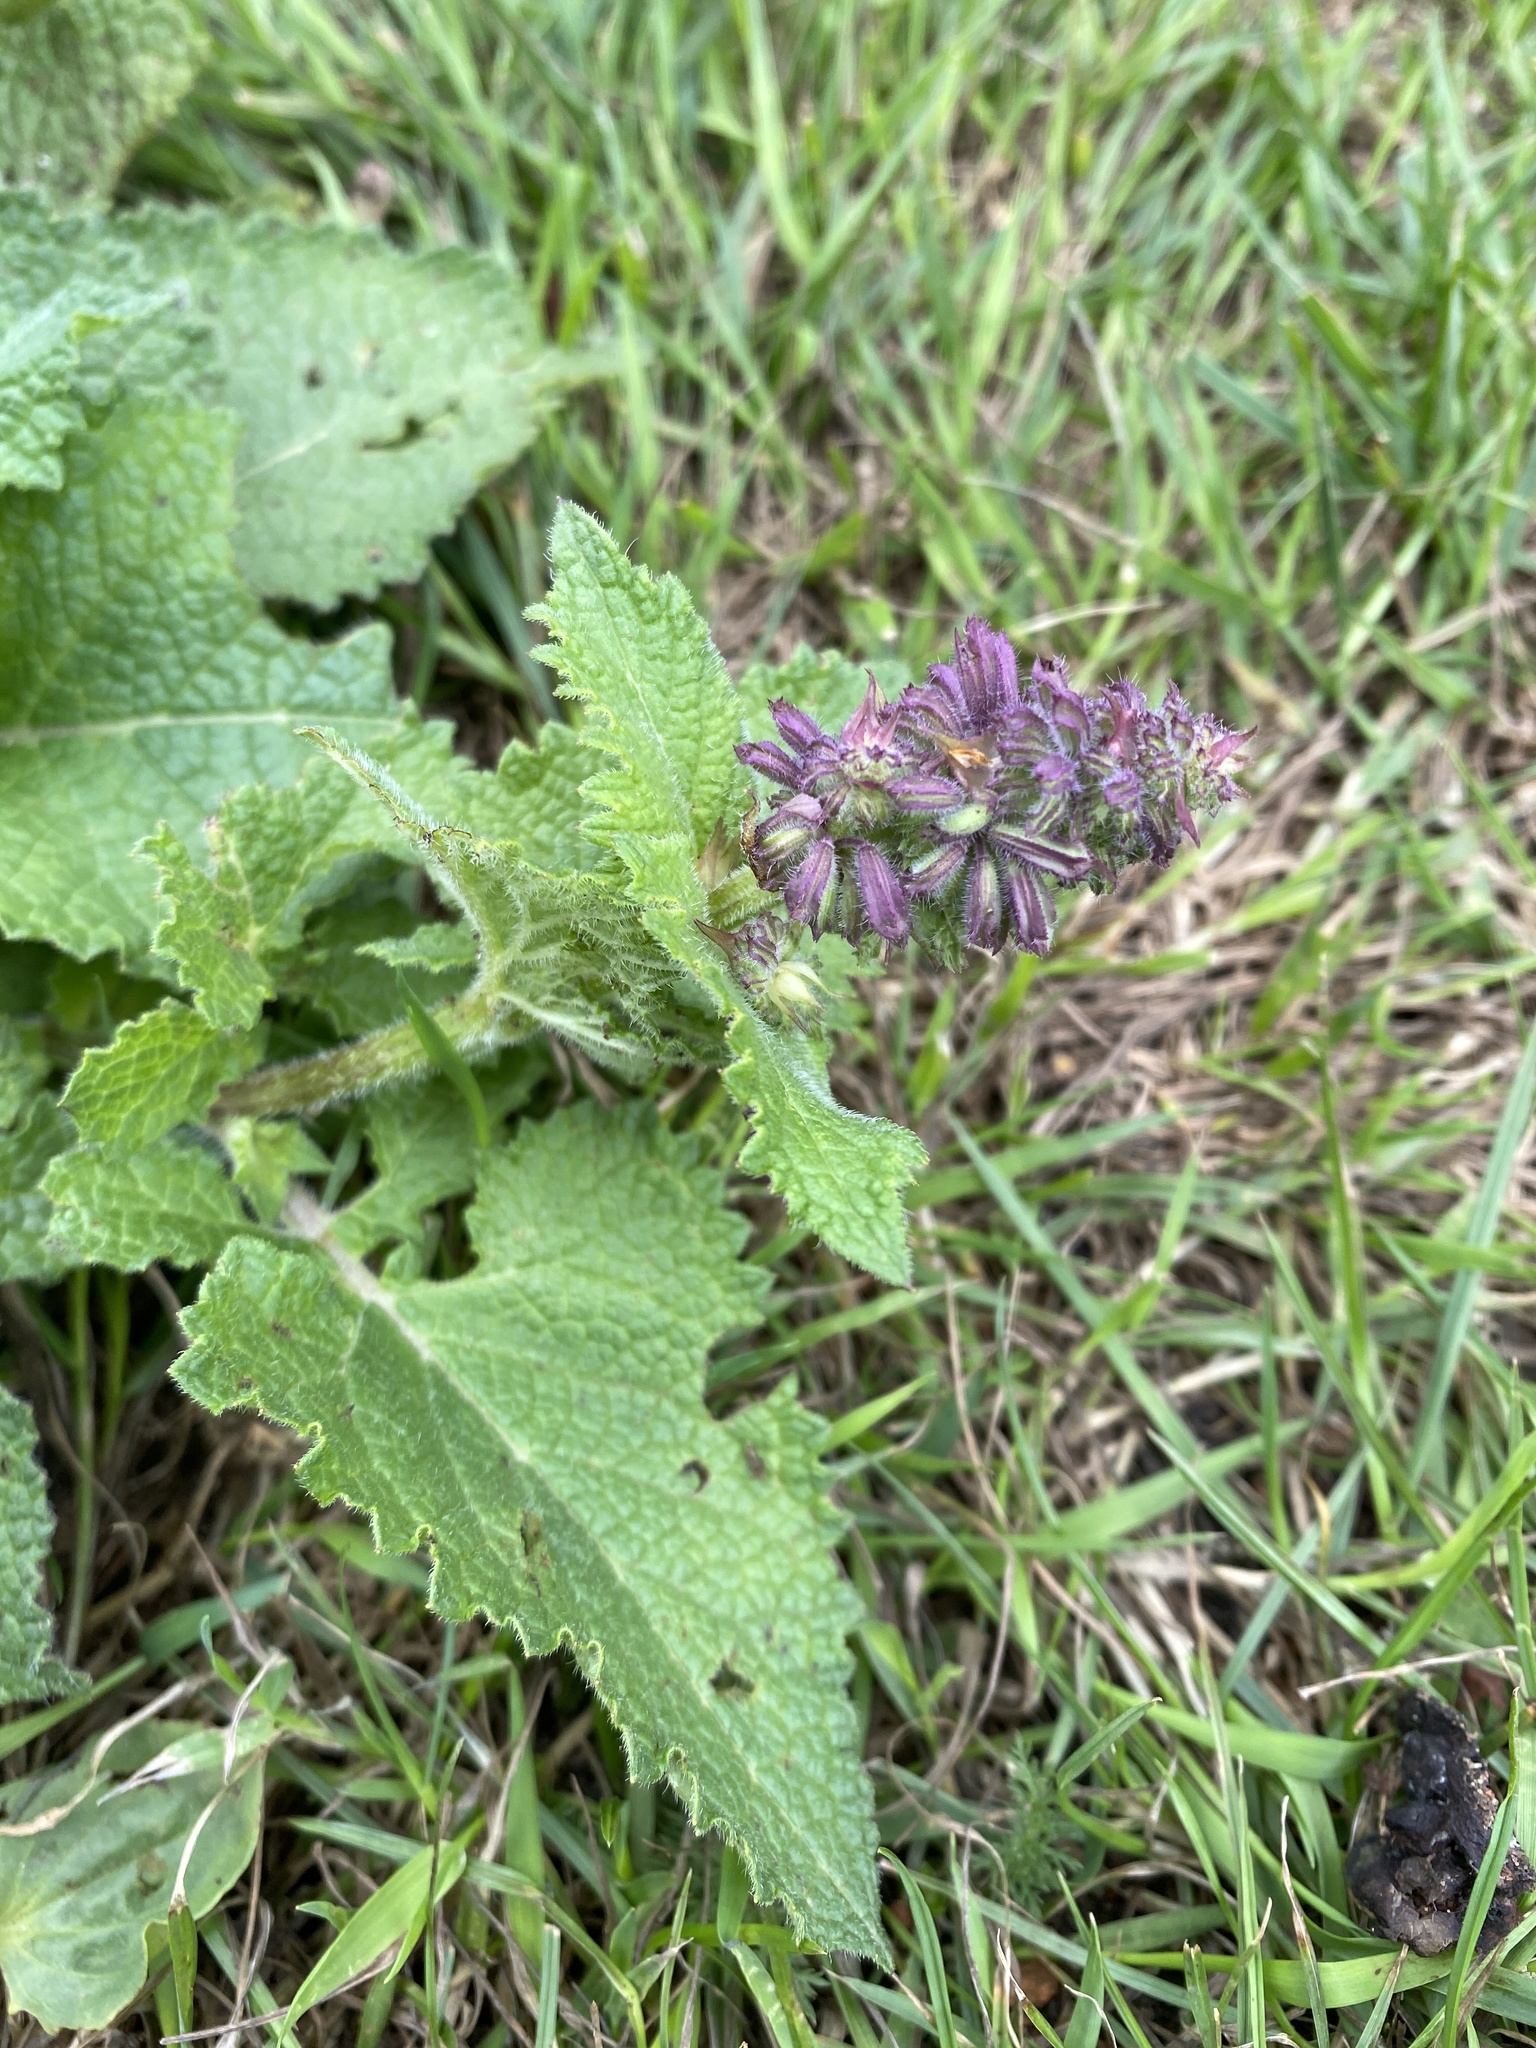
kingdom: Plantae
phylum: Tracheophyta
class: Magnoliopsida
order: Lamiales
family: Lamiaceae
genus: Salvia
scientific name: Salvia verbenaca
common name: Wild clary
